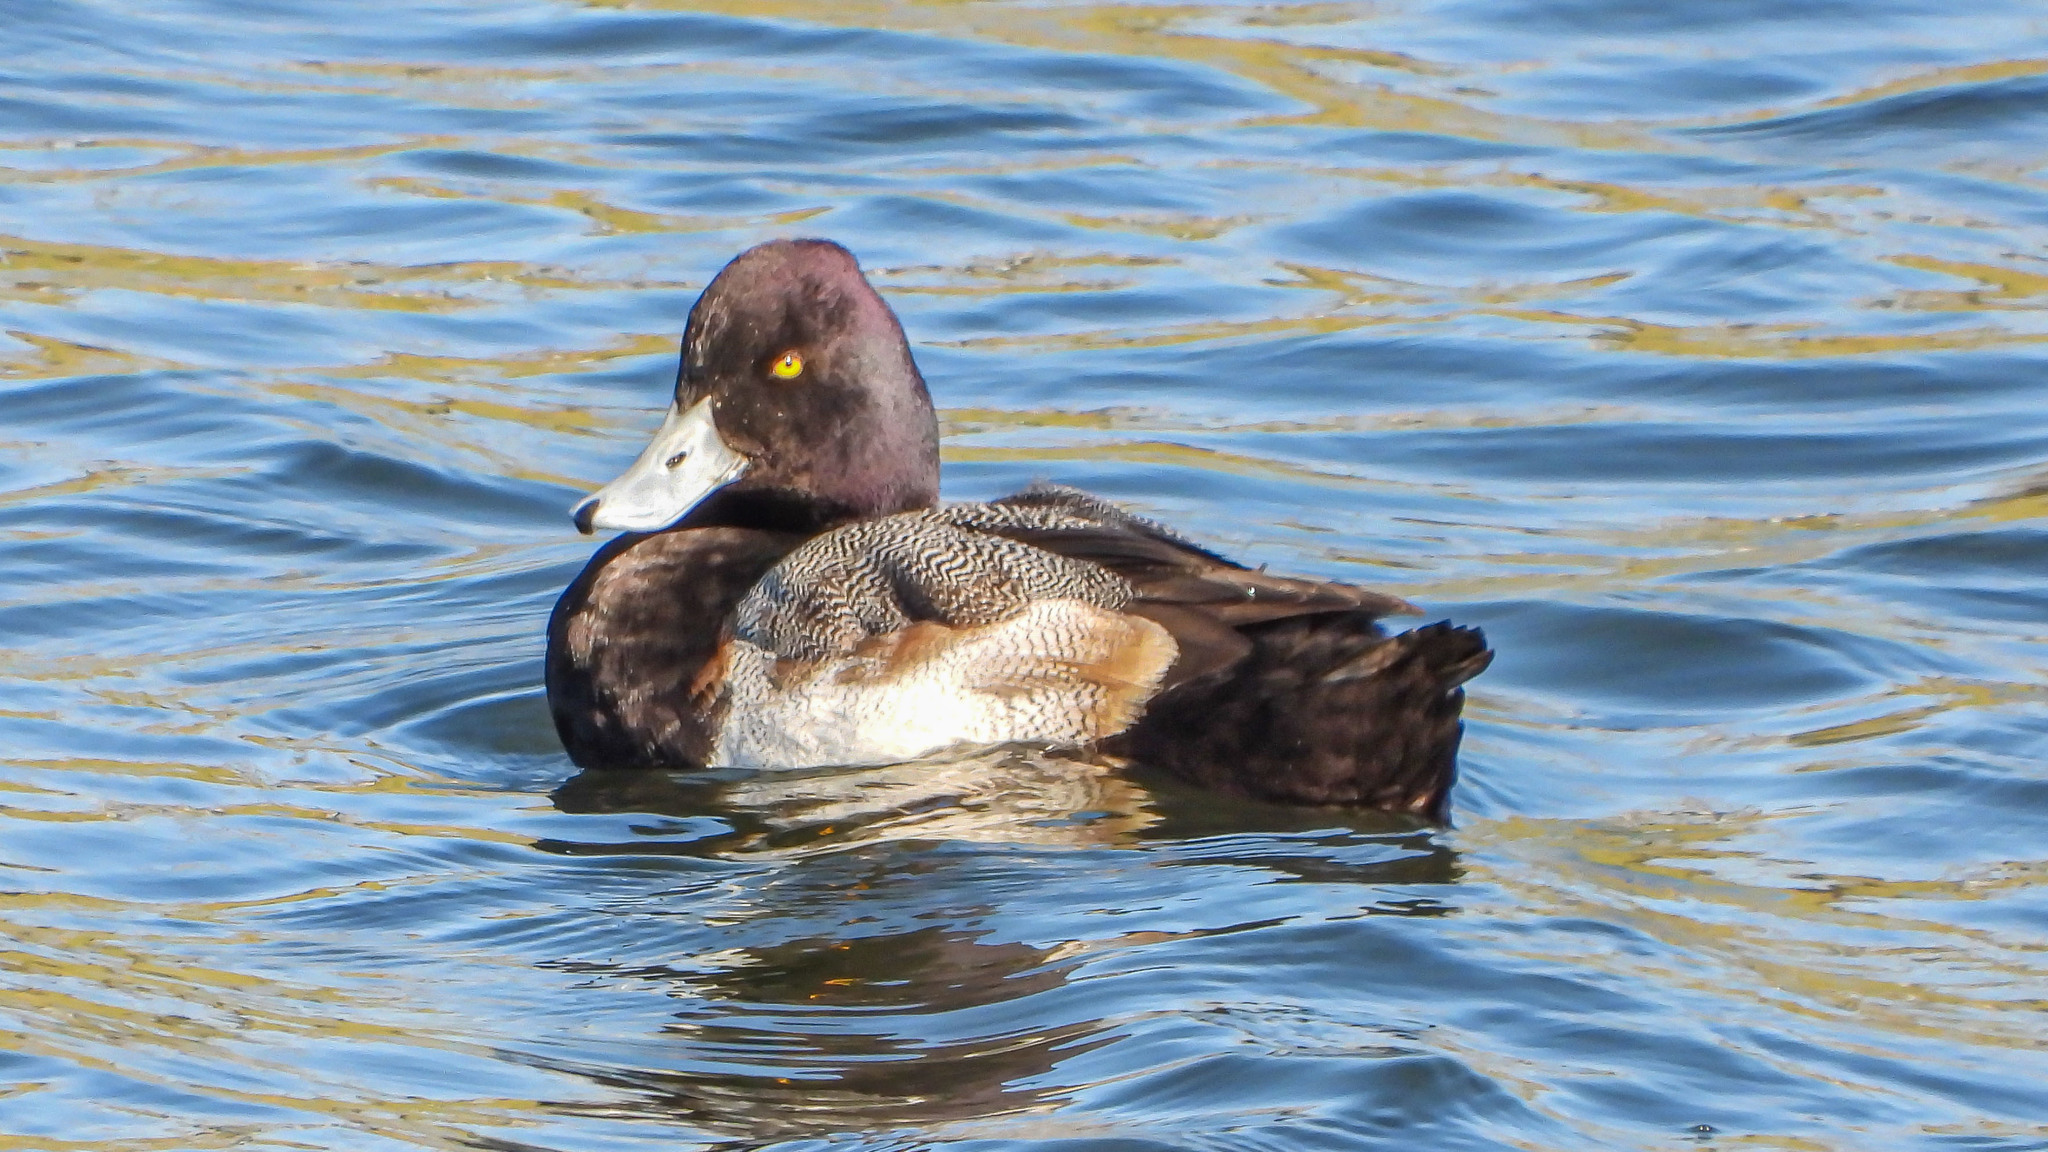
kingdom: Animalia
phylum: Chordata
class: Aves
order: Anseriformes
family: Anatidae
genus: Aythya
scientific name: Aythya affinis
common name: Lesser scaup
